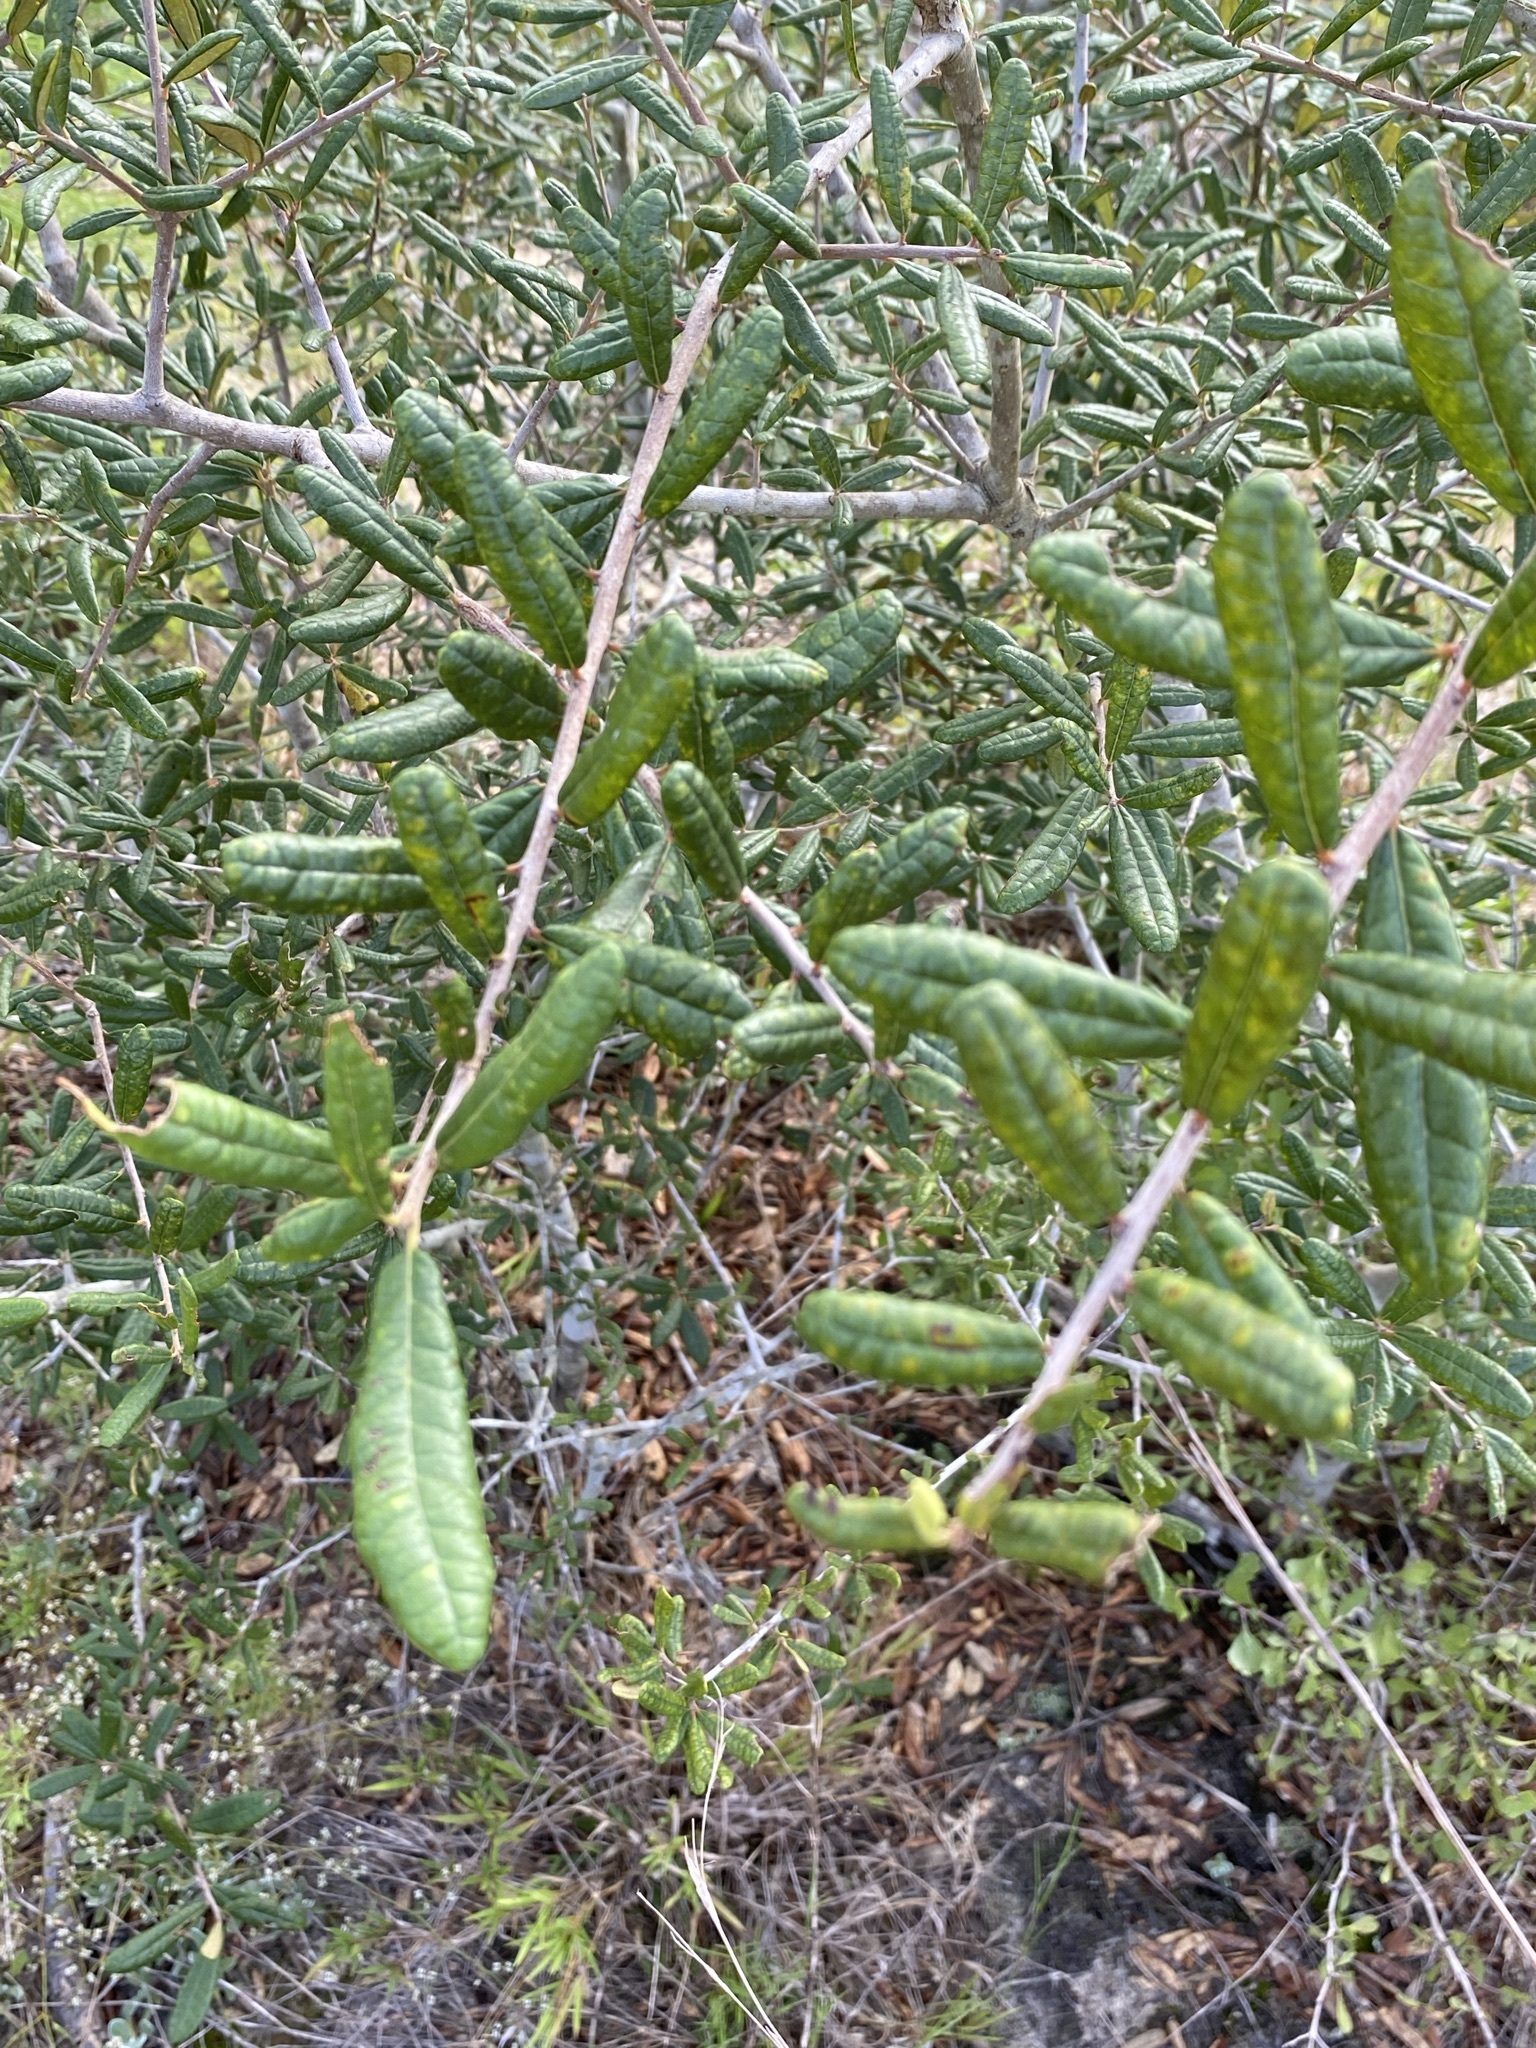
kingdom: Plantae
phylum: Tracheophyta
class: Magnoliopsida
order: Fagales
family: Fagaceae
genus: Quercus
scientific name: Quercus geminata
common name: Sand live oak
